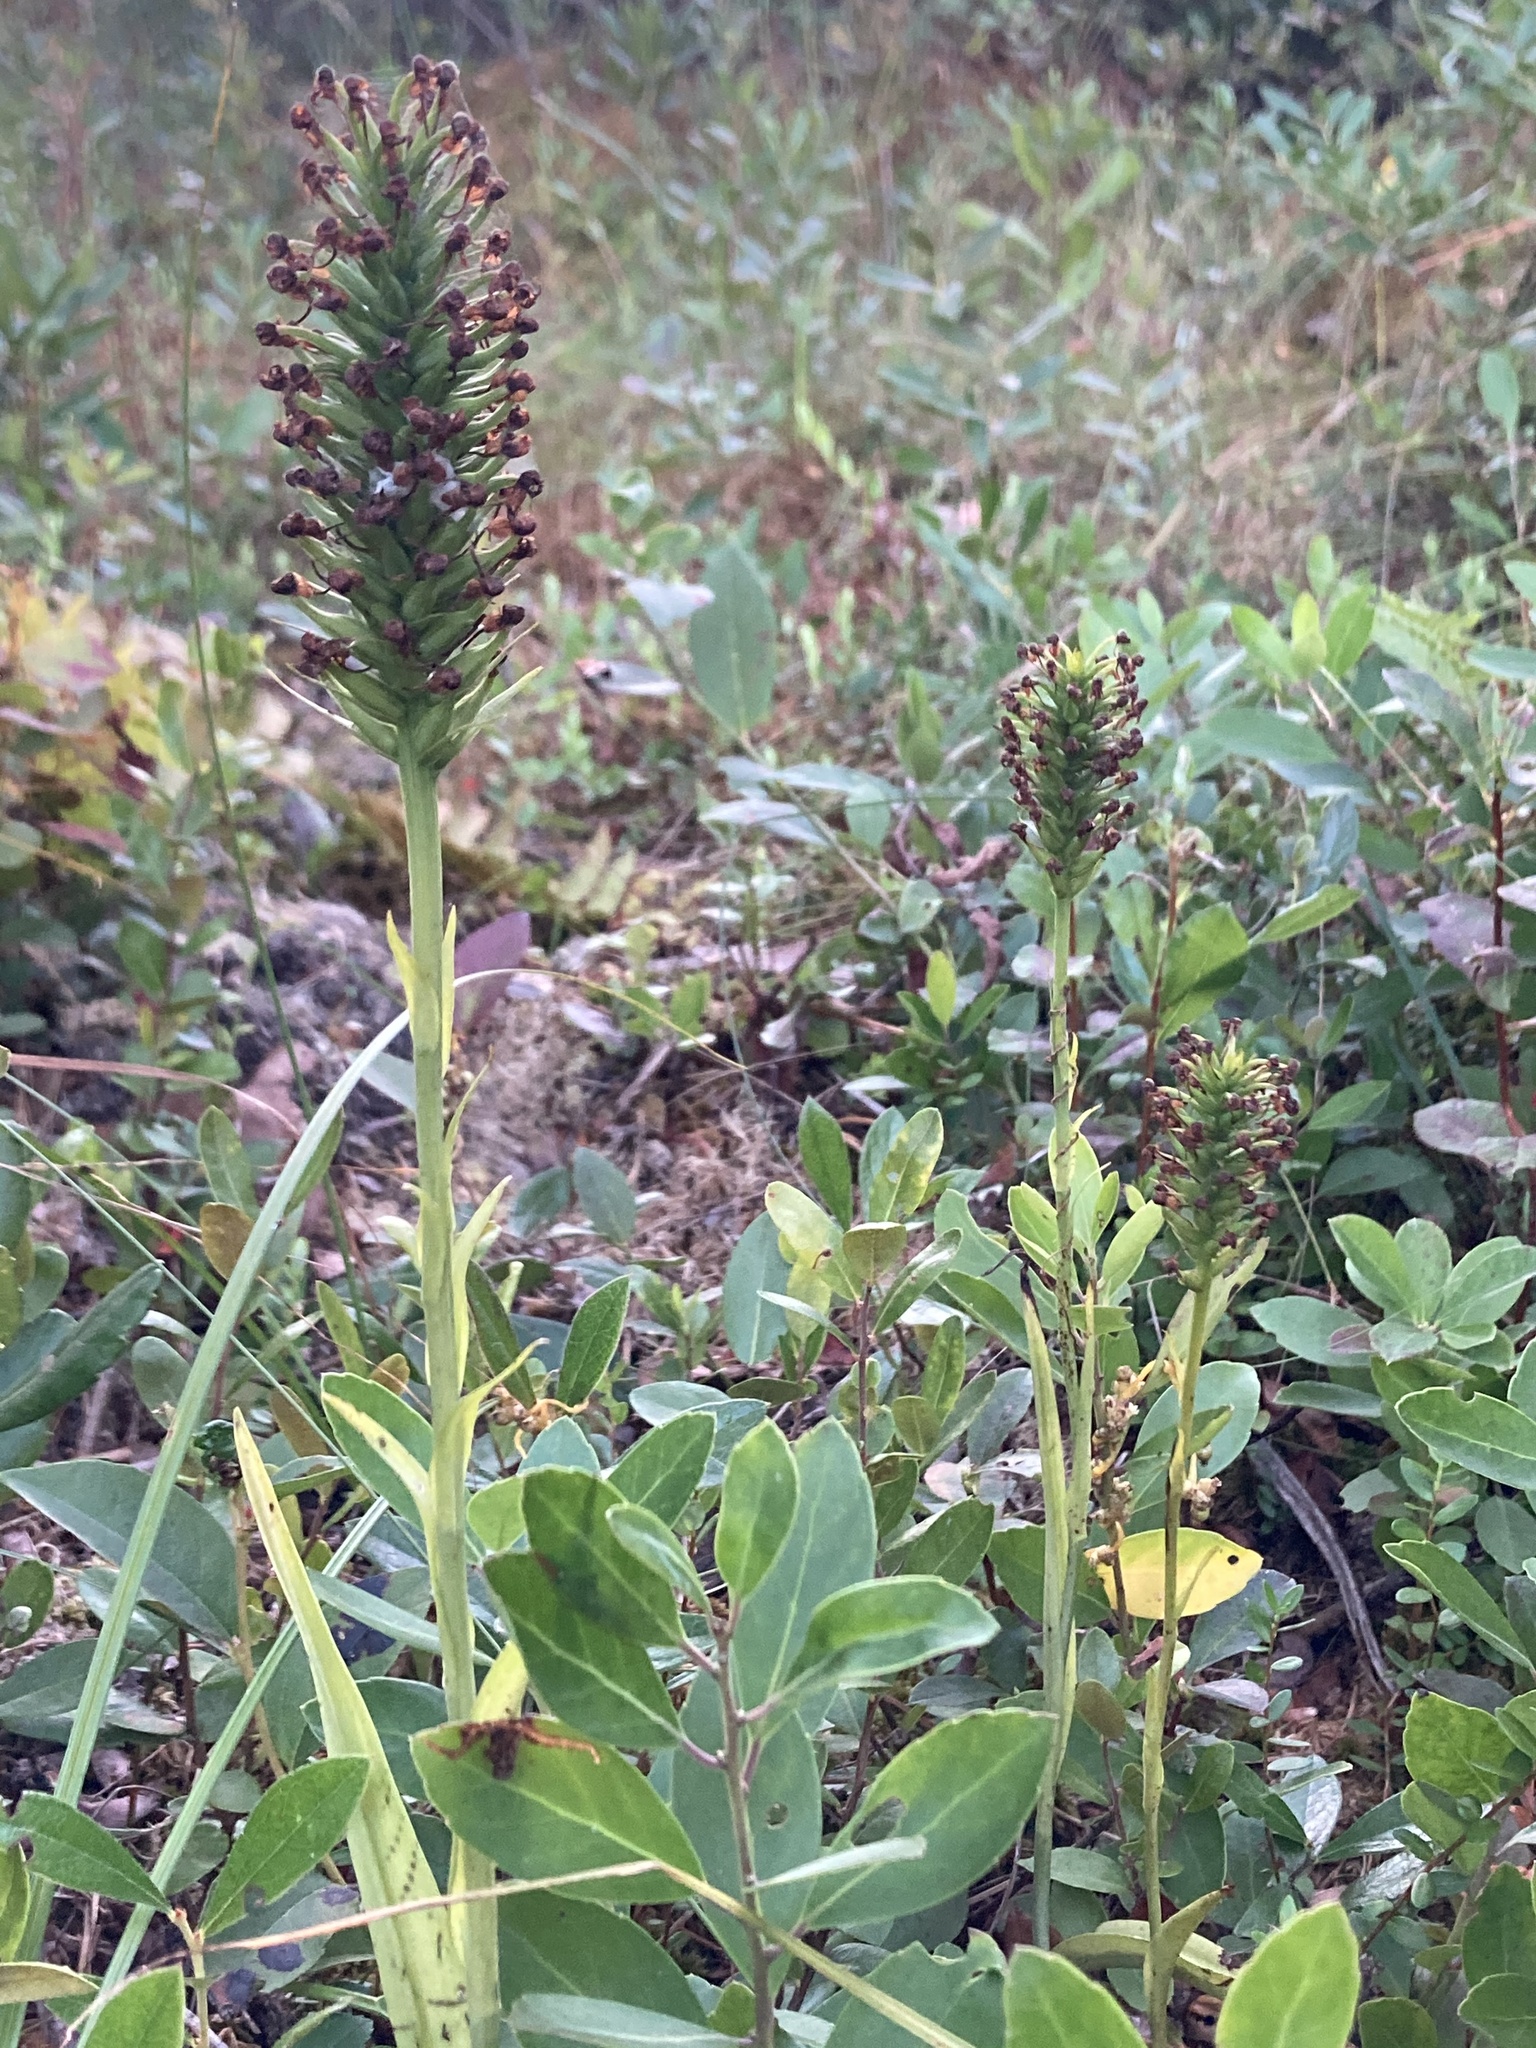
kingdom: Plantae
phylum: Tracheophyta
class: Liliopsida
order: Asparagales
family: Orchidaceae
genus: Platanthera
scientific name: Platanthera cristata
